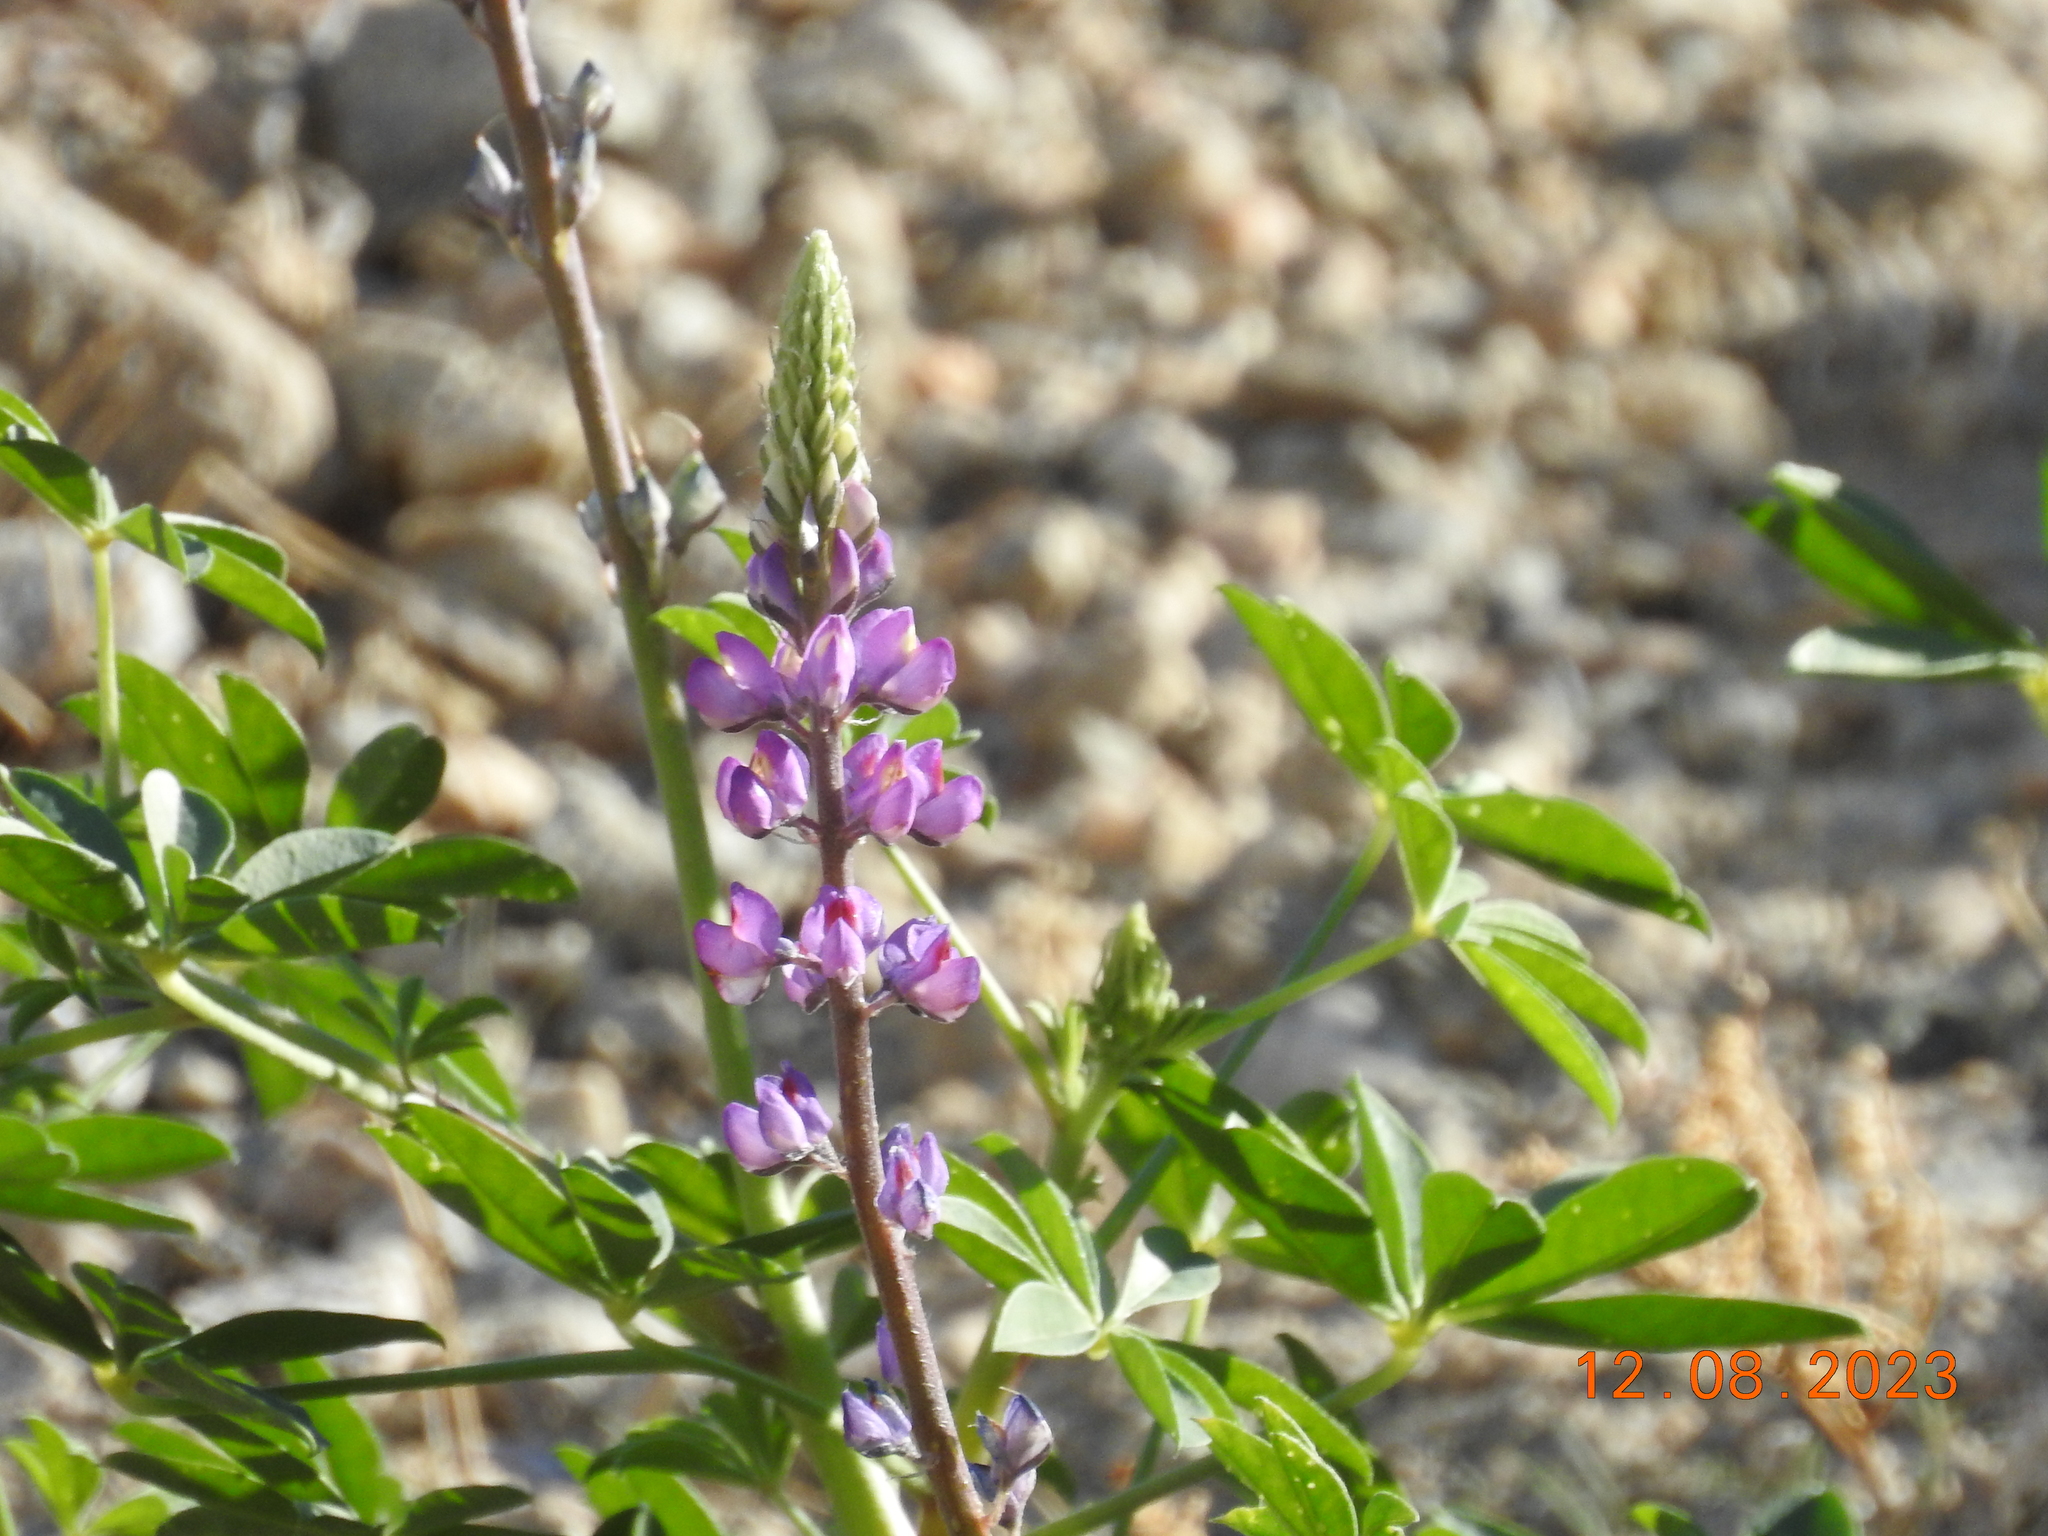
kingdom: Plantae
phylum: Tracheophyta
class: Magnoliopsida
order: Fabales
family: Fabaceae
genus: Lupinus
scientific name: Lupinus arizonicus
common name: Arizona lupine
